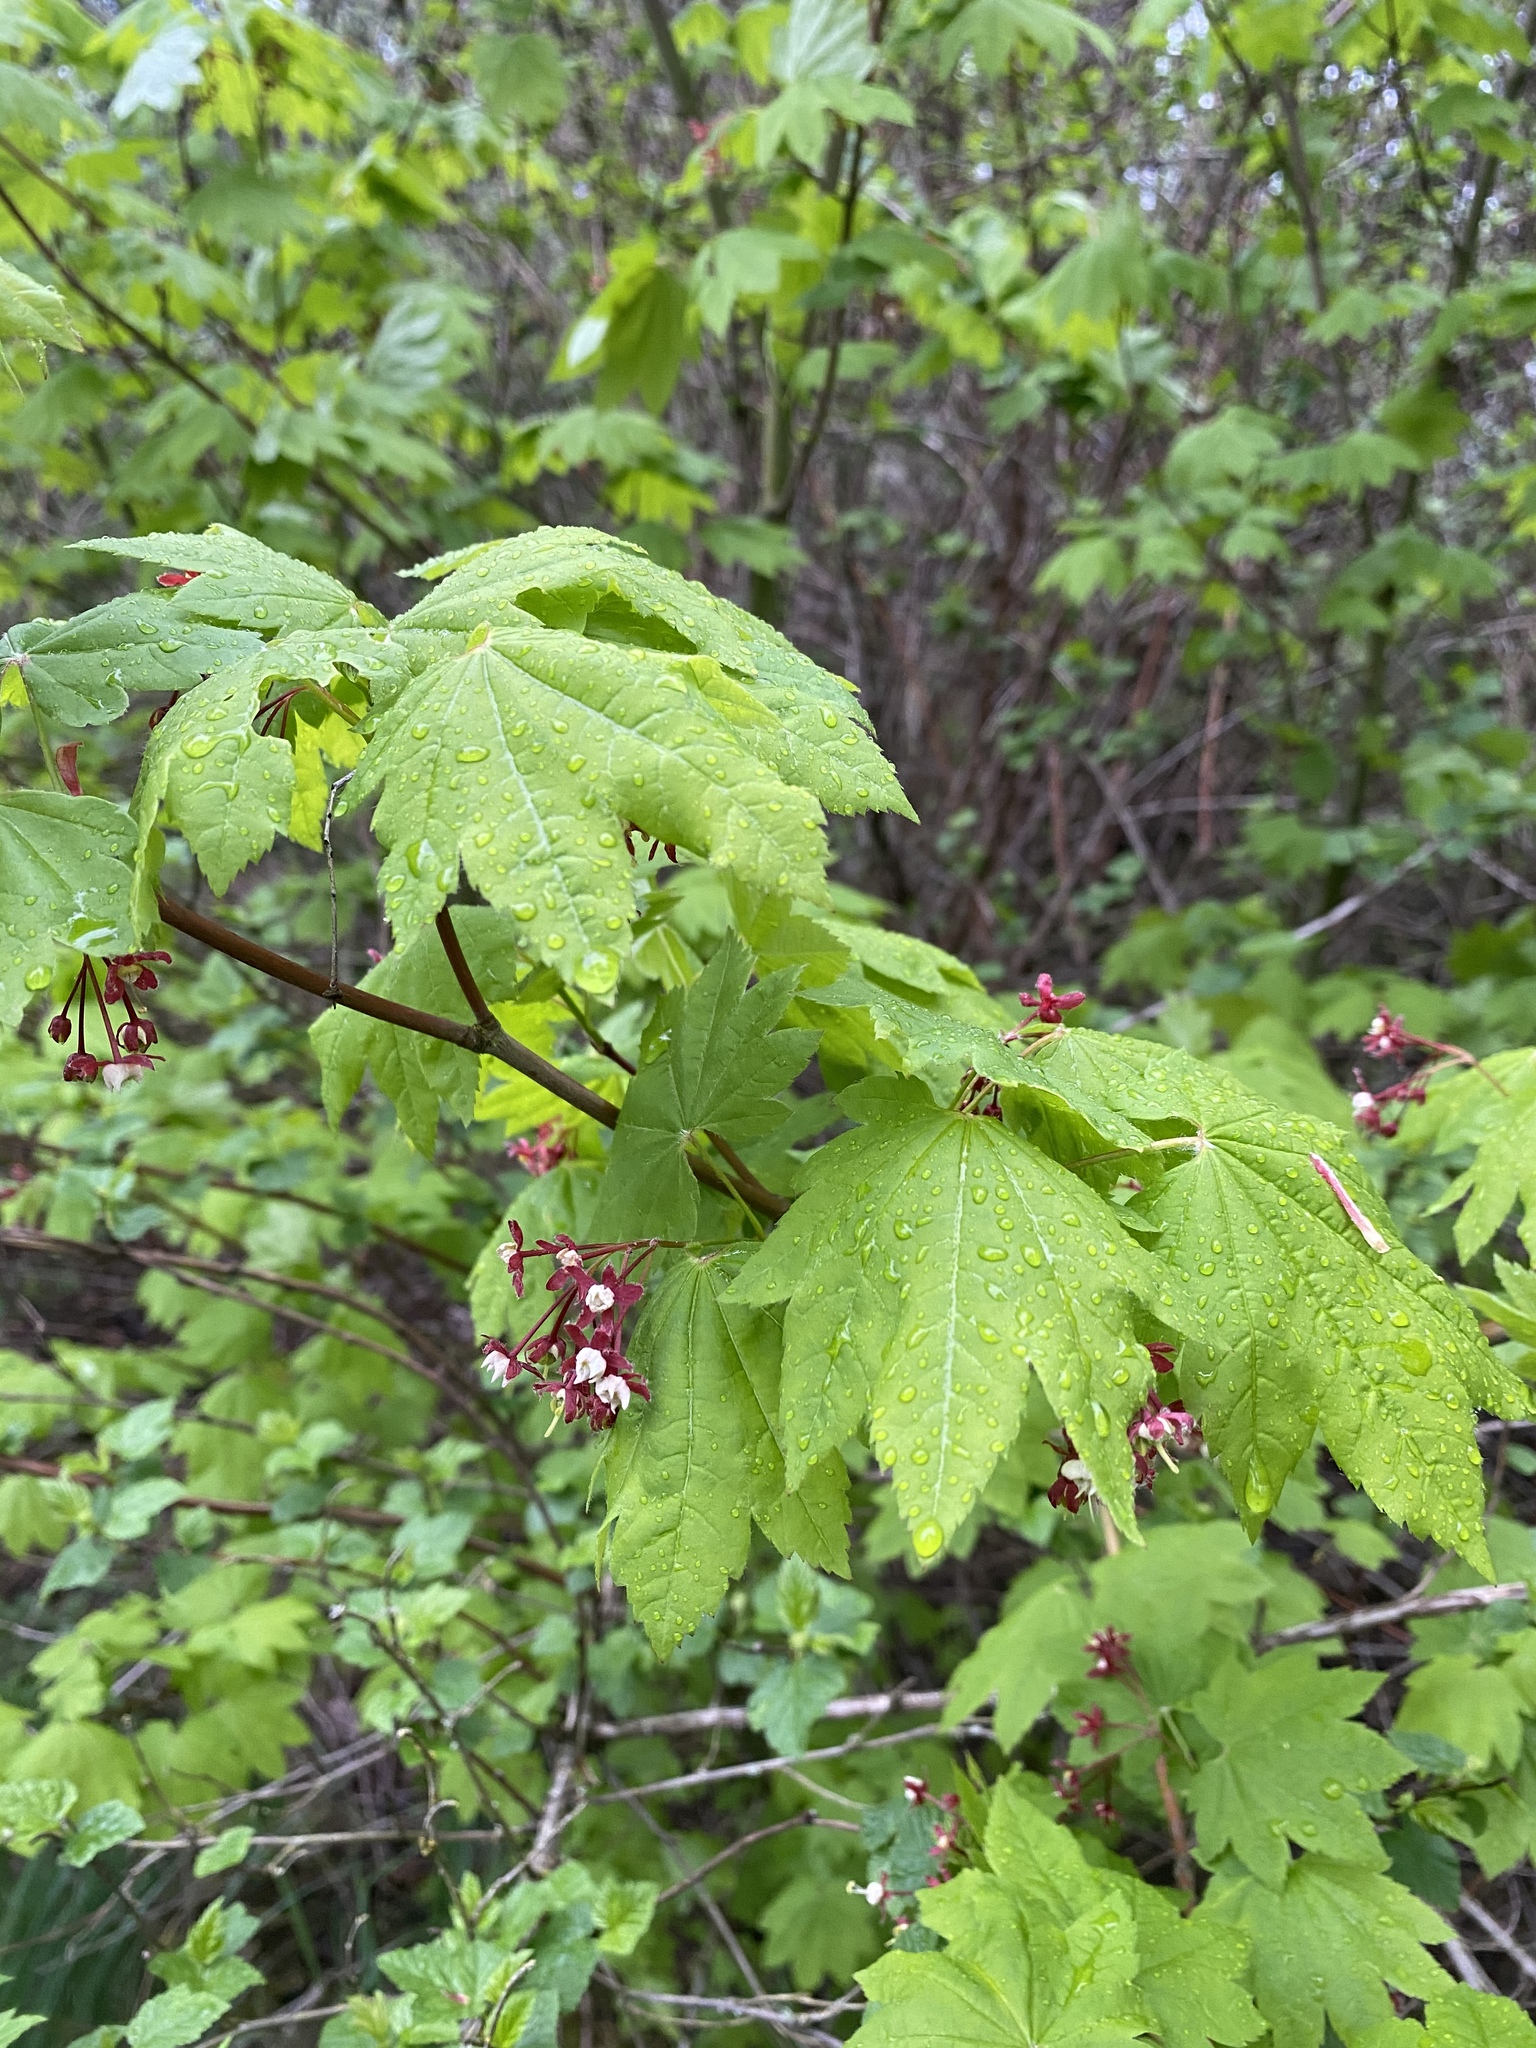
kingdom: Plantae
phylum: Tracheophyta
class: Magnoliopsida
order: Sapindales
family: Sapindaceae
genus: Acer
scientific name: Acer circinatum
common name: Vine maple
